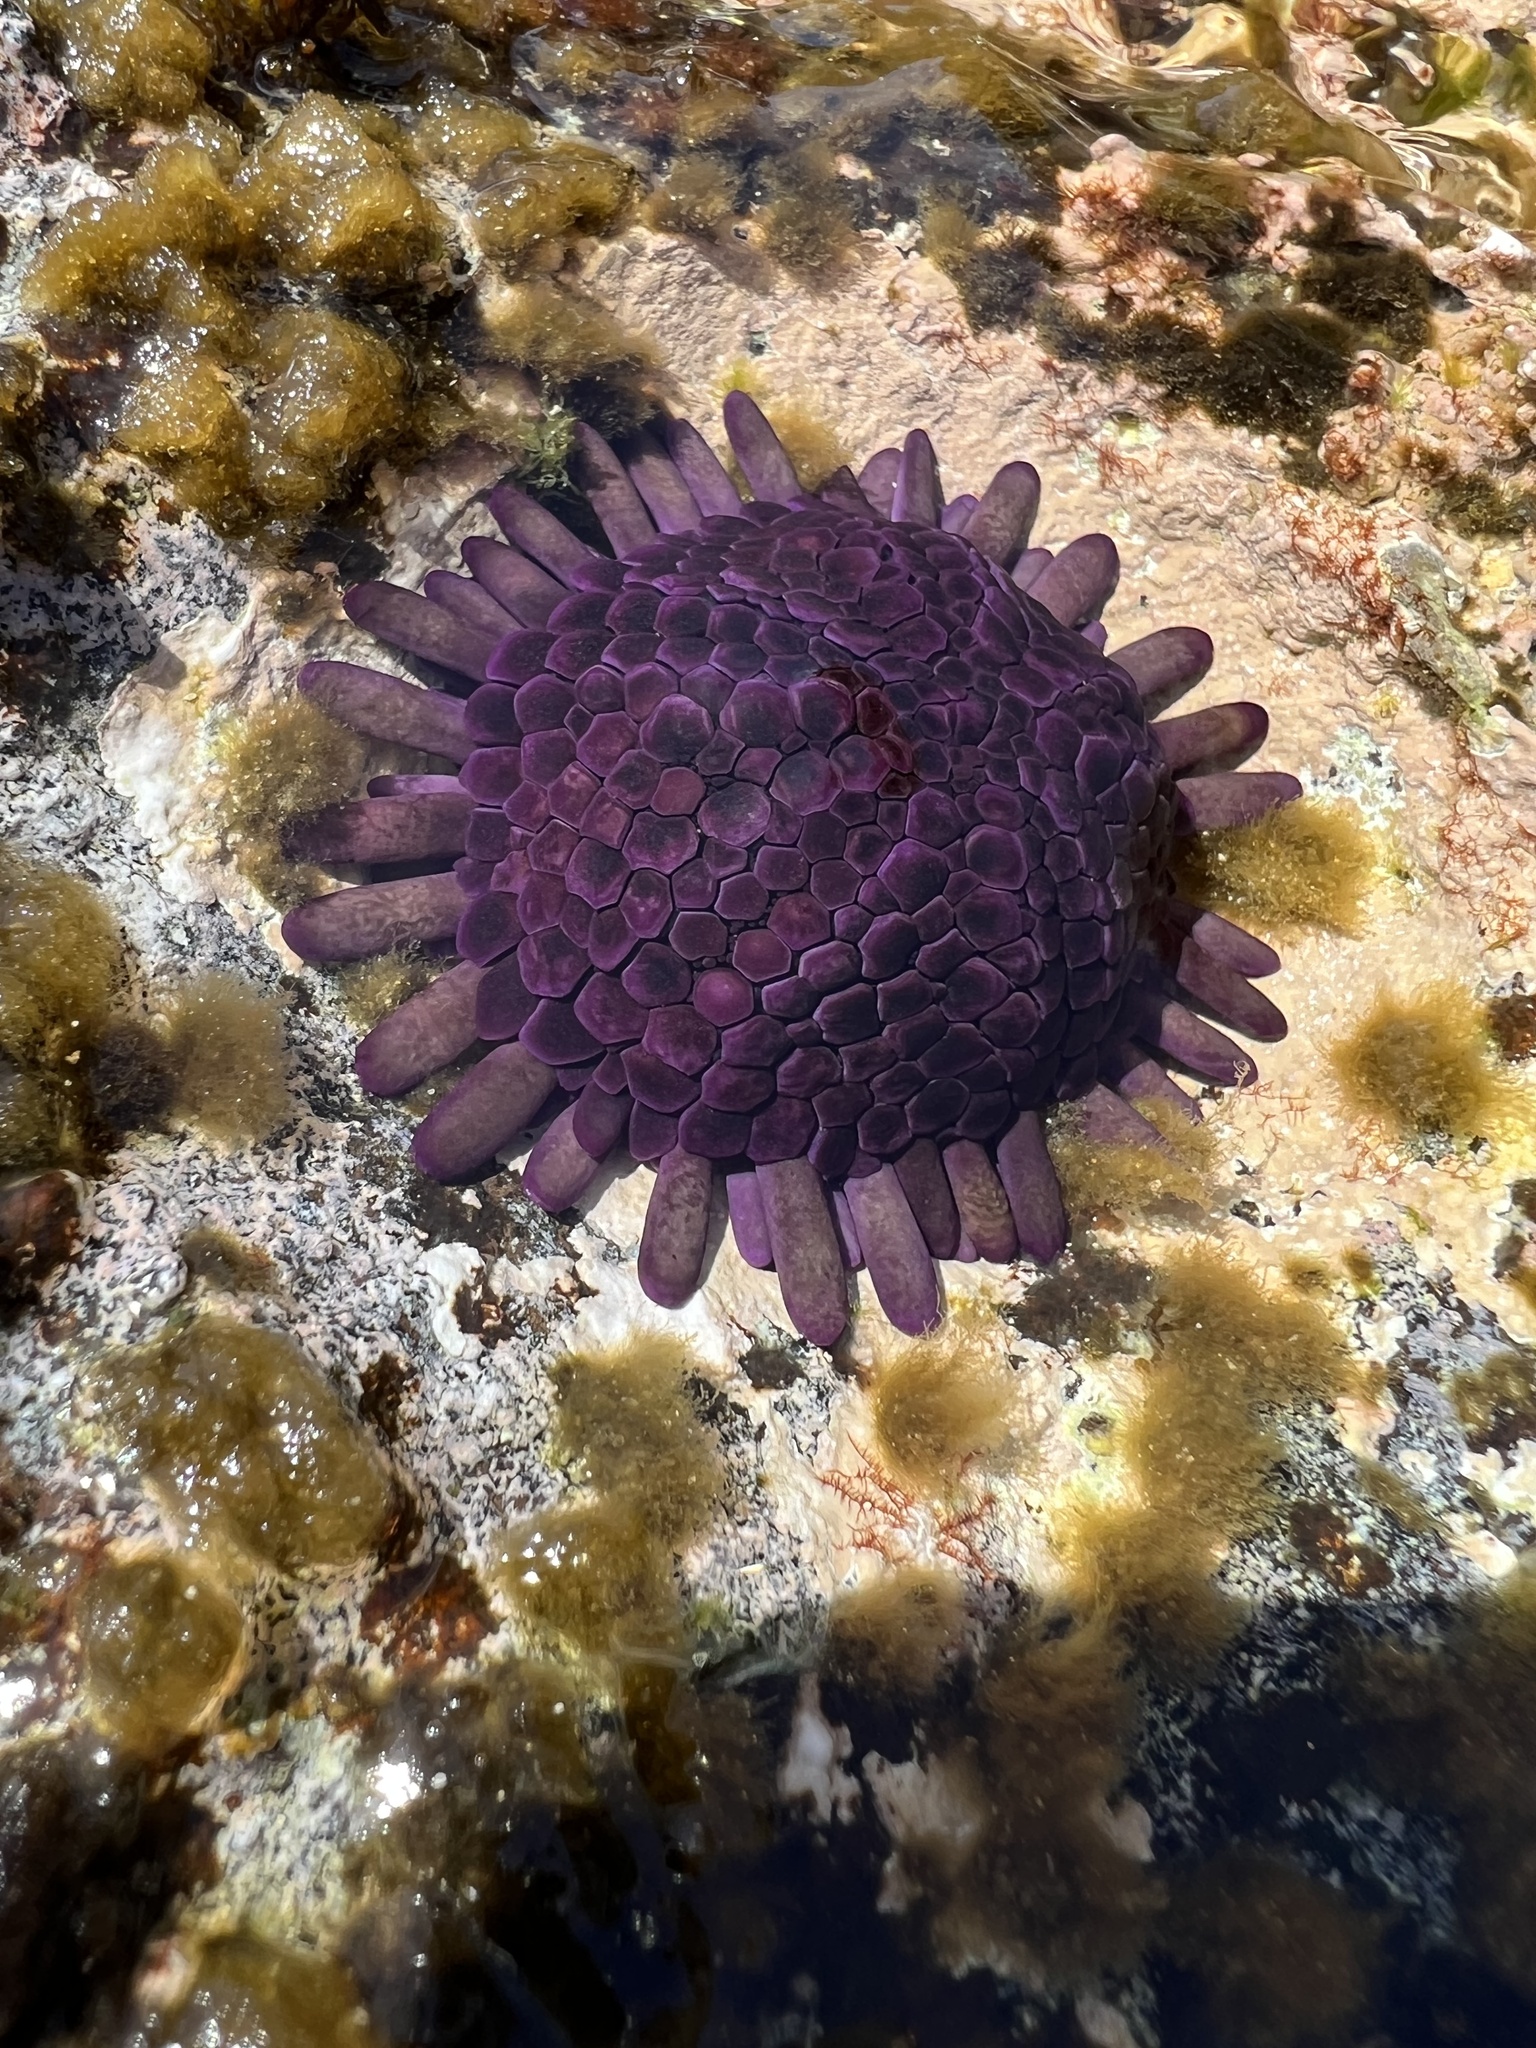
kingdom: Animalia
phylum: Echinodermata
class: Echinoidea
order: Camarodonta
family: Echinometridae
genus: Colobocentrotus
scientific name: Colobocentrotus atratus
